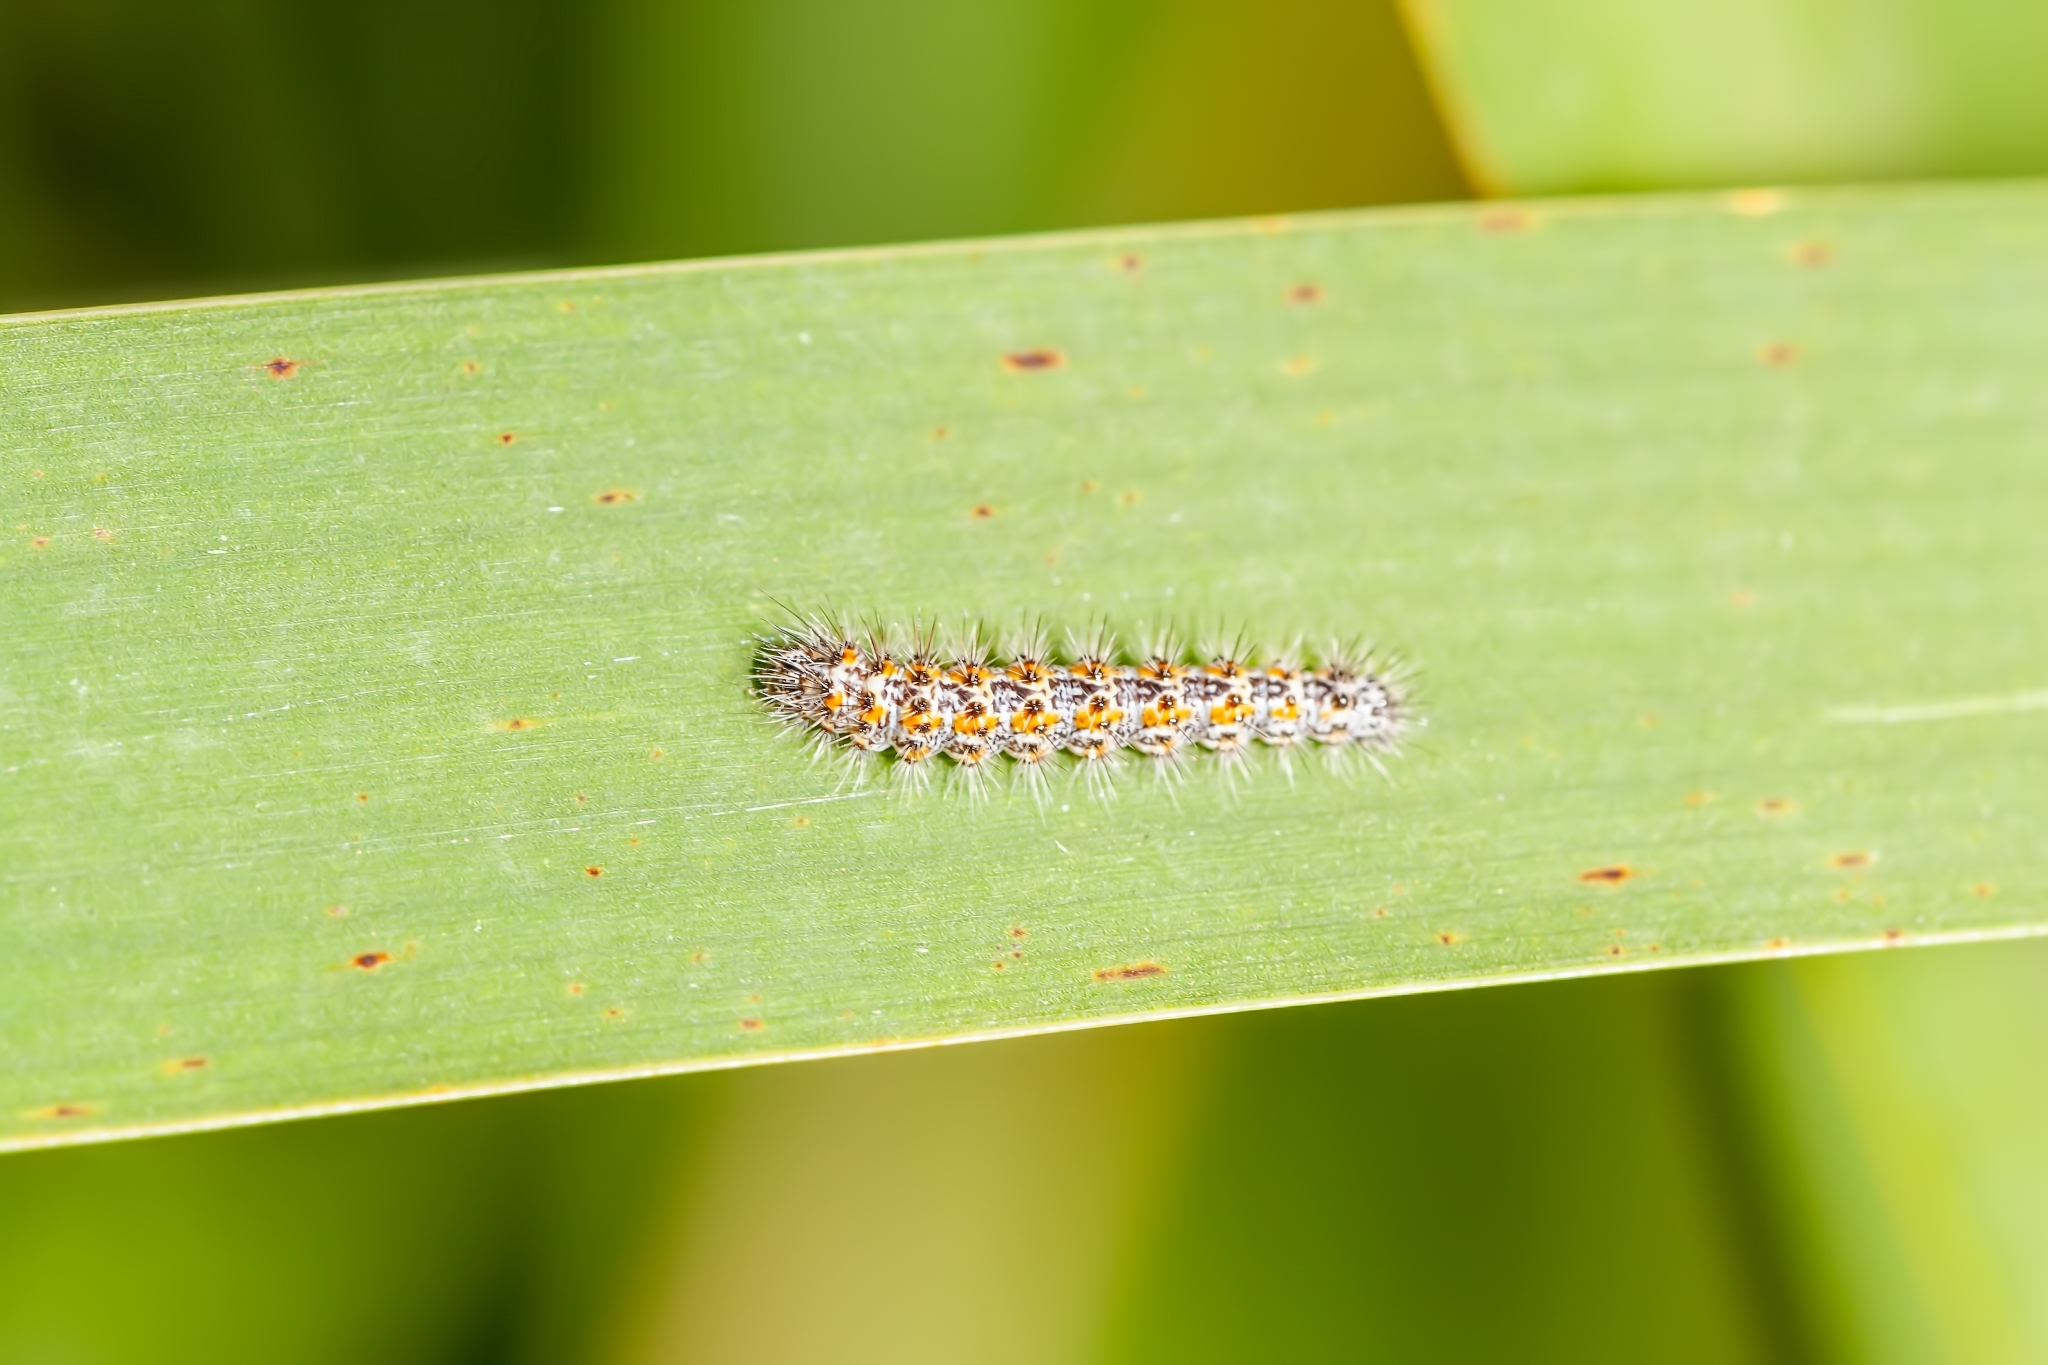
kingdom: Animalia
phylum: Arthropoda
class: Insecta
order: Lepidoptera
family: Noctuidae
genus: Acronicta
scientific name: Acronicta insularis
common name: Henry's marsh moth
